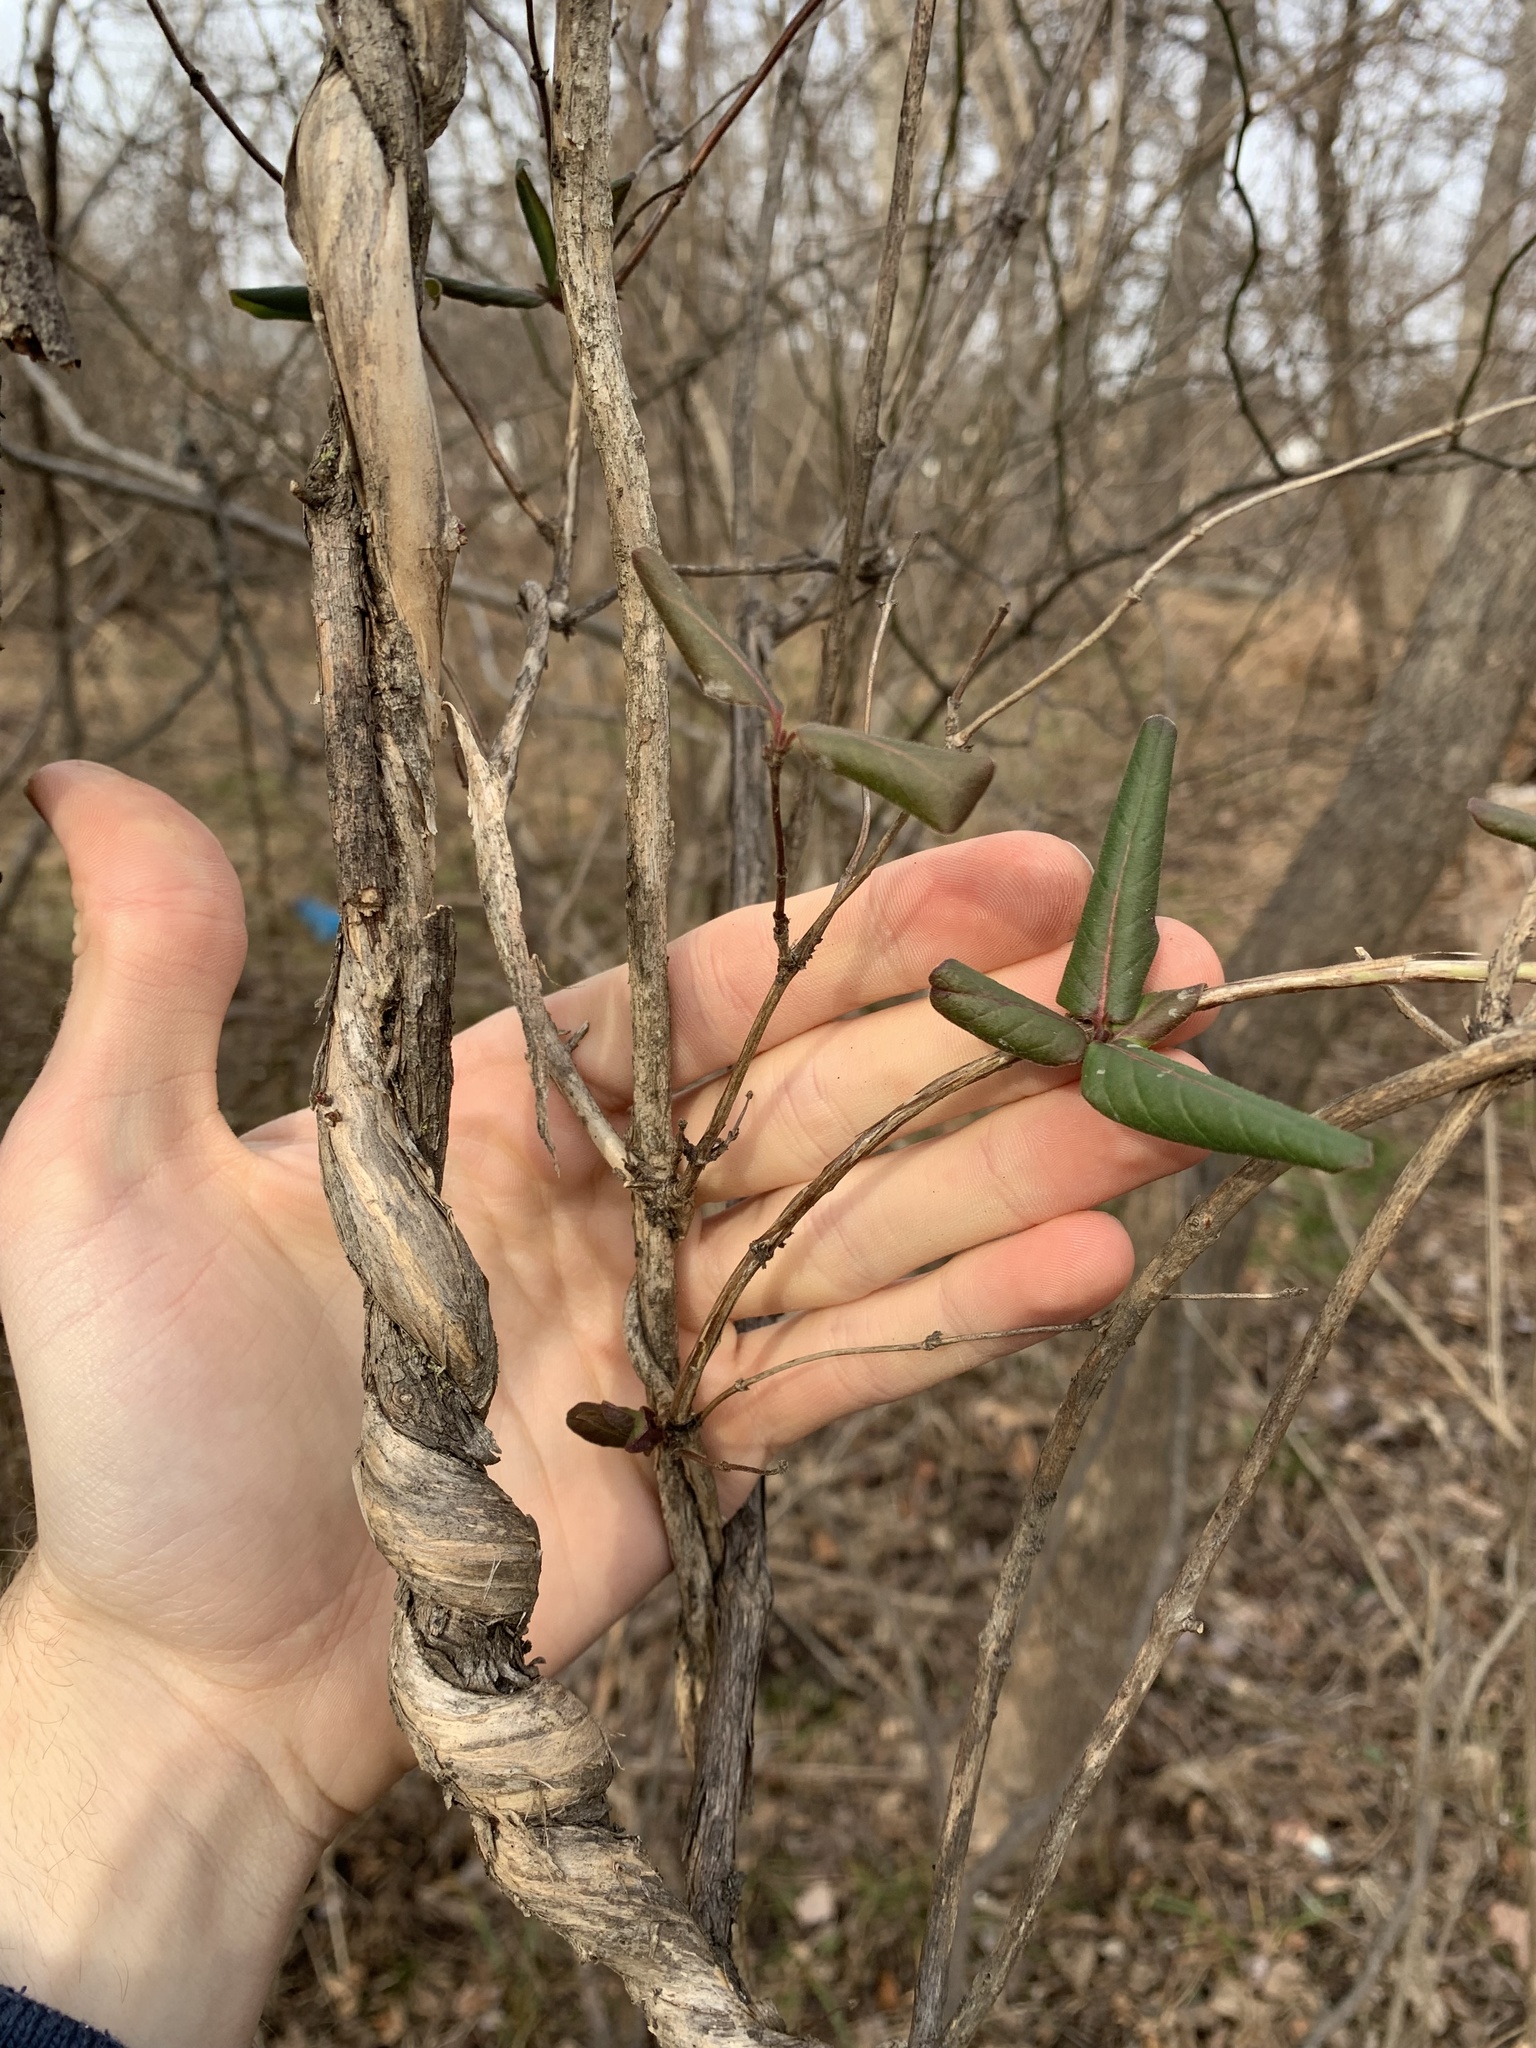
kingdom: Plantae
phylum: Tracheophyta
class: Magnoliopsida
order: Dipsacales
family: Caprifoliaceae
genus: Lonicera
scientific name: Lonicera japonica
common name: Japanese honeysuckle
